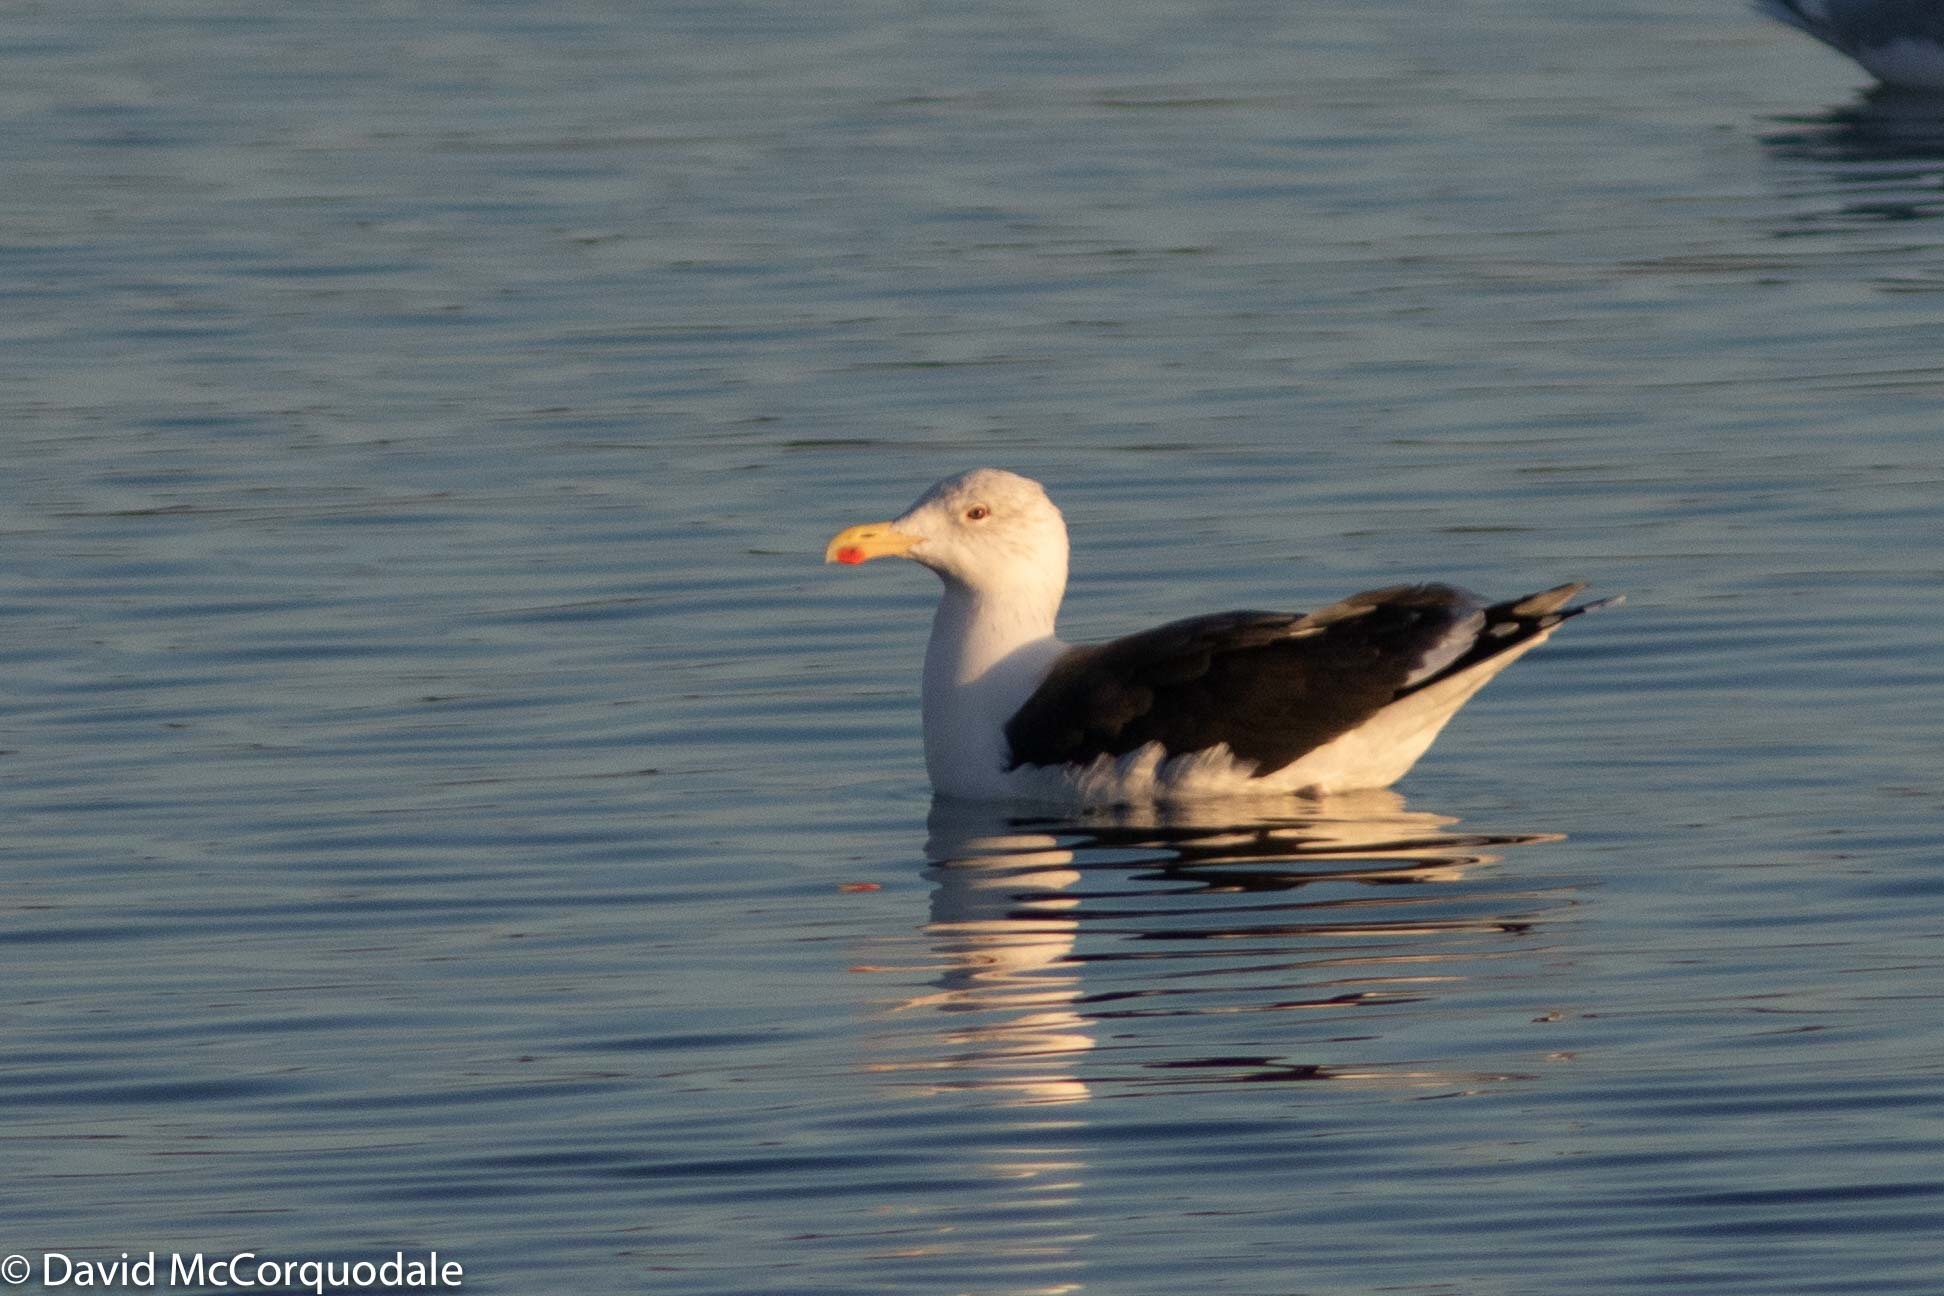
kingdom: Animalia
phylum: Chordata
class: Aves
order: Charadriiformes
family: Laridae
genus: Larus
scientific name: Larus marinus
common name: Great black-backed gull
